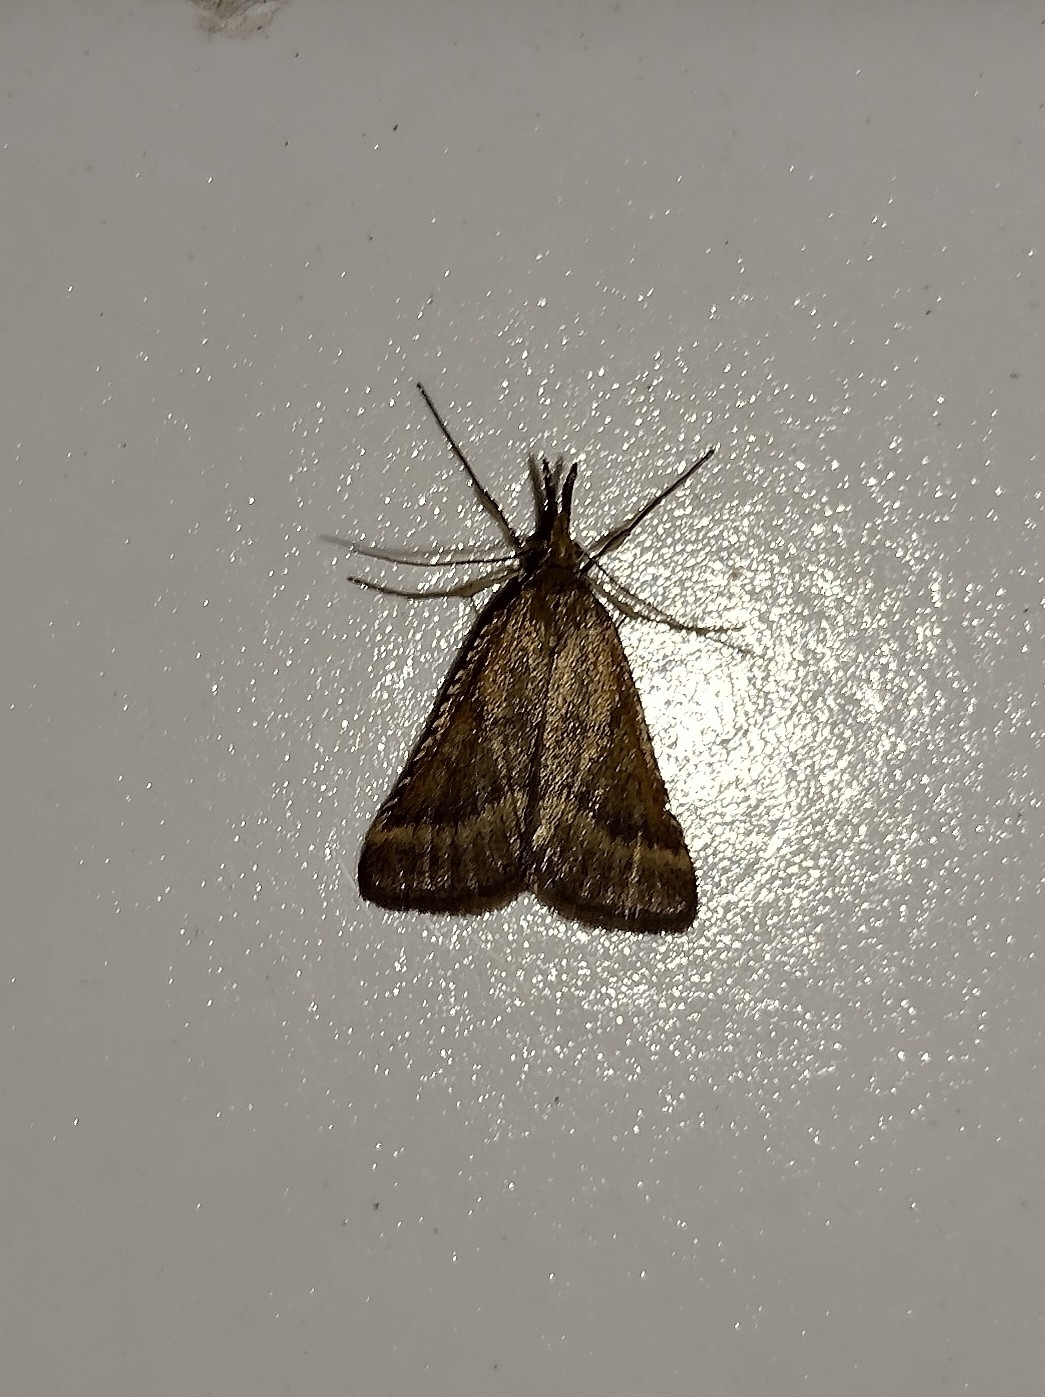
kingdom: Animalia
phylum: Arthropoda
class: Insecta
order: Lepidoptera
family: Pyralidae
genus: Synaphe
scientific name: Synaphe punctalis
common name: Long-legged tabby
